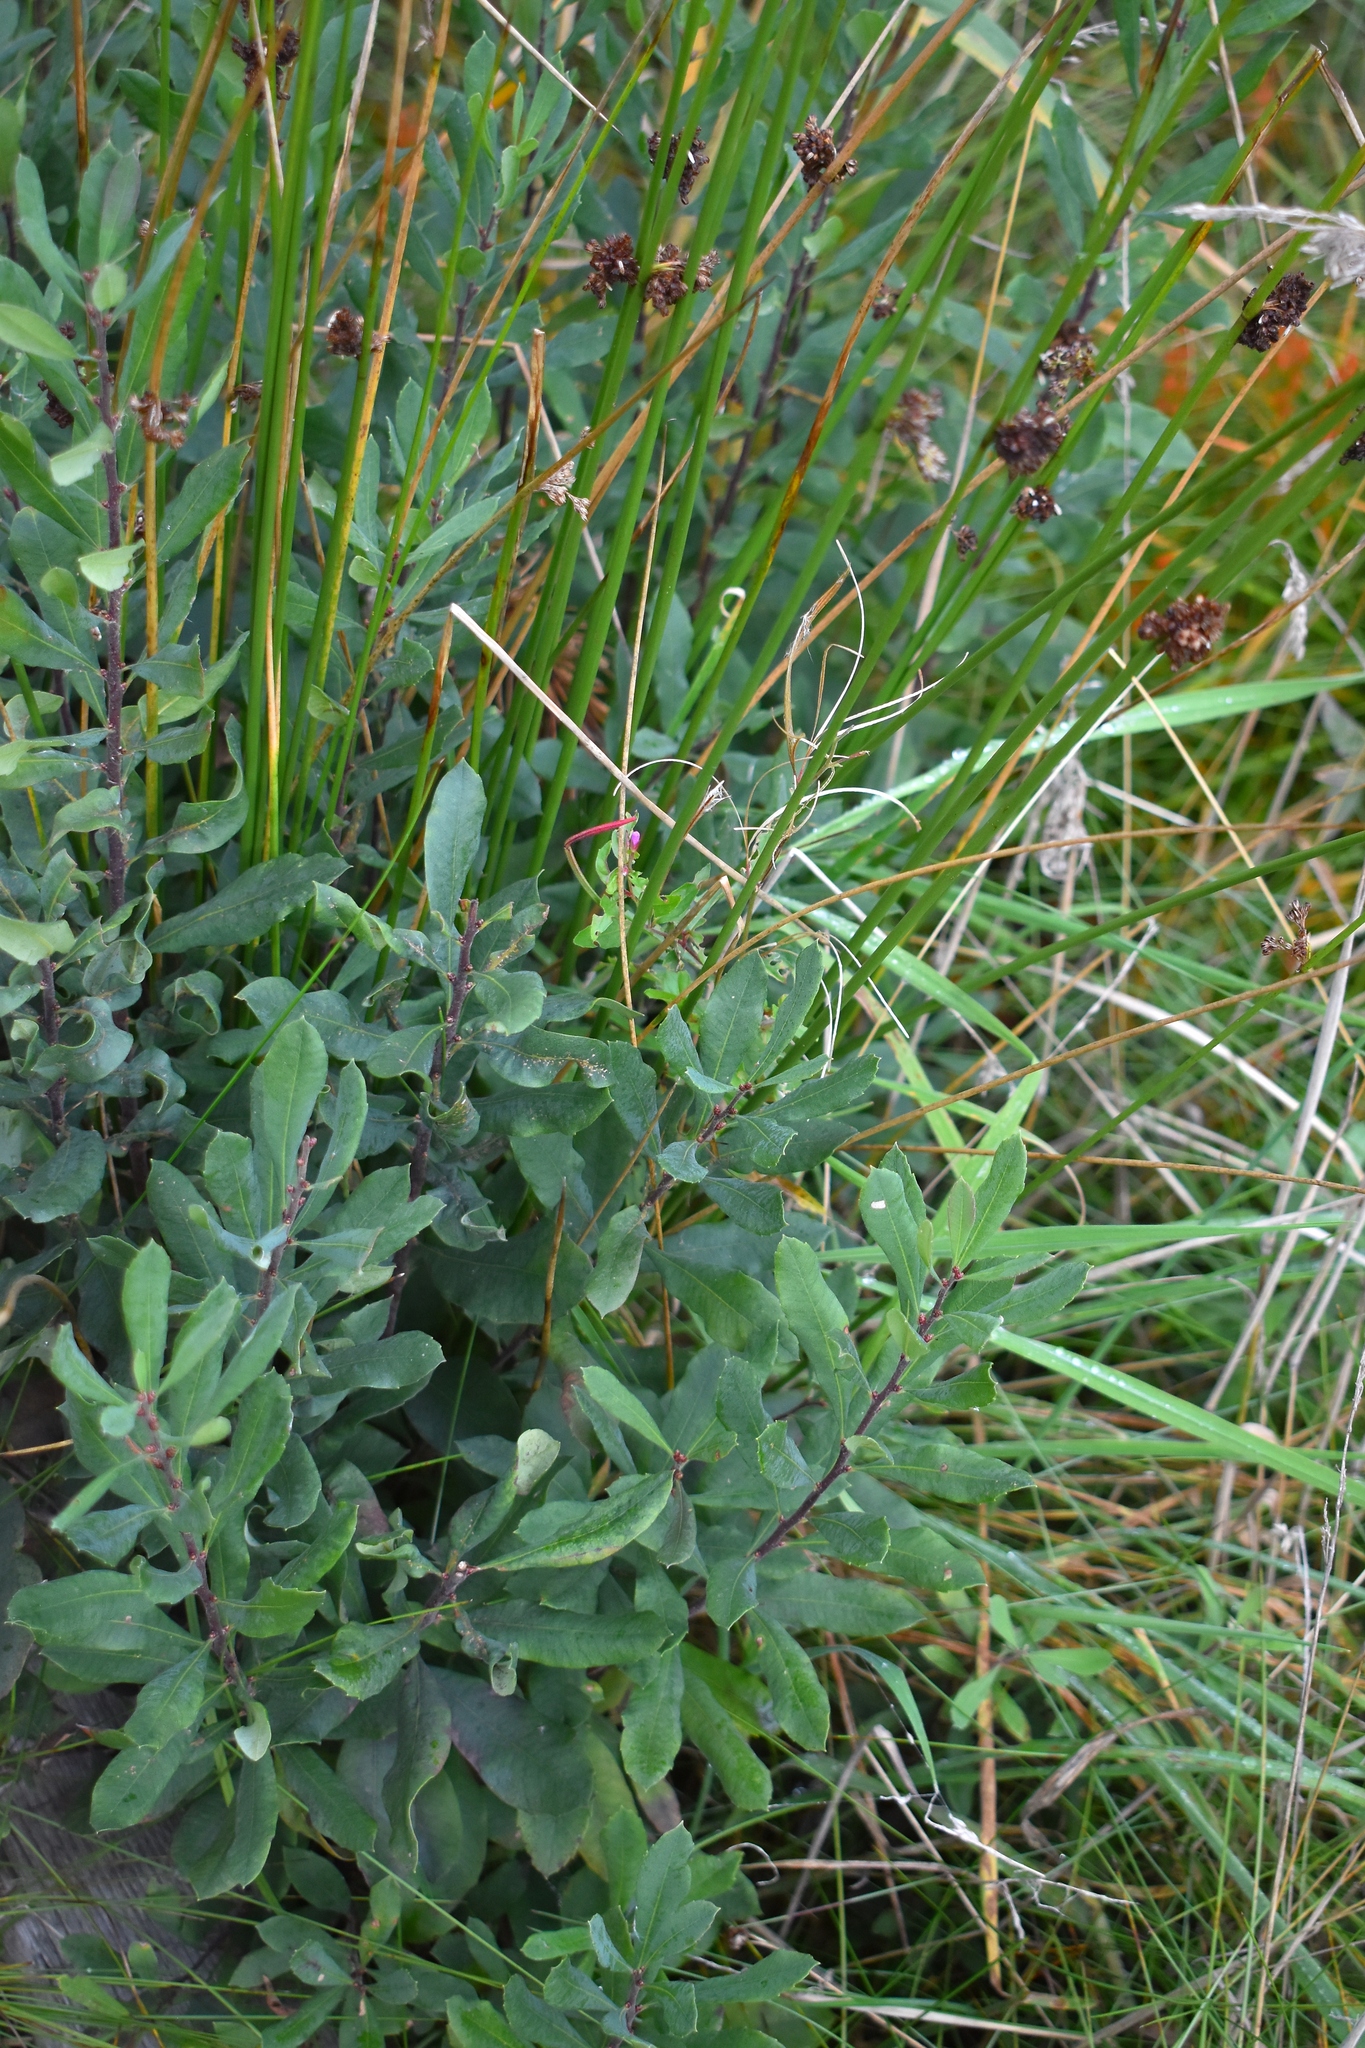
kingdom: Plantae
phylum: Tracheophyta
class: Magnoliopsida
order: Fagales
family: Myricaceae
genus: Myrica
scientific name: Myrica gale
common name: Sweet gale
